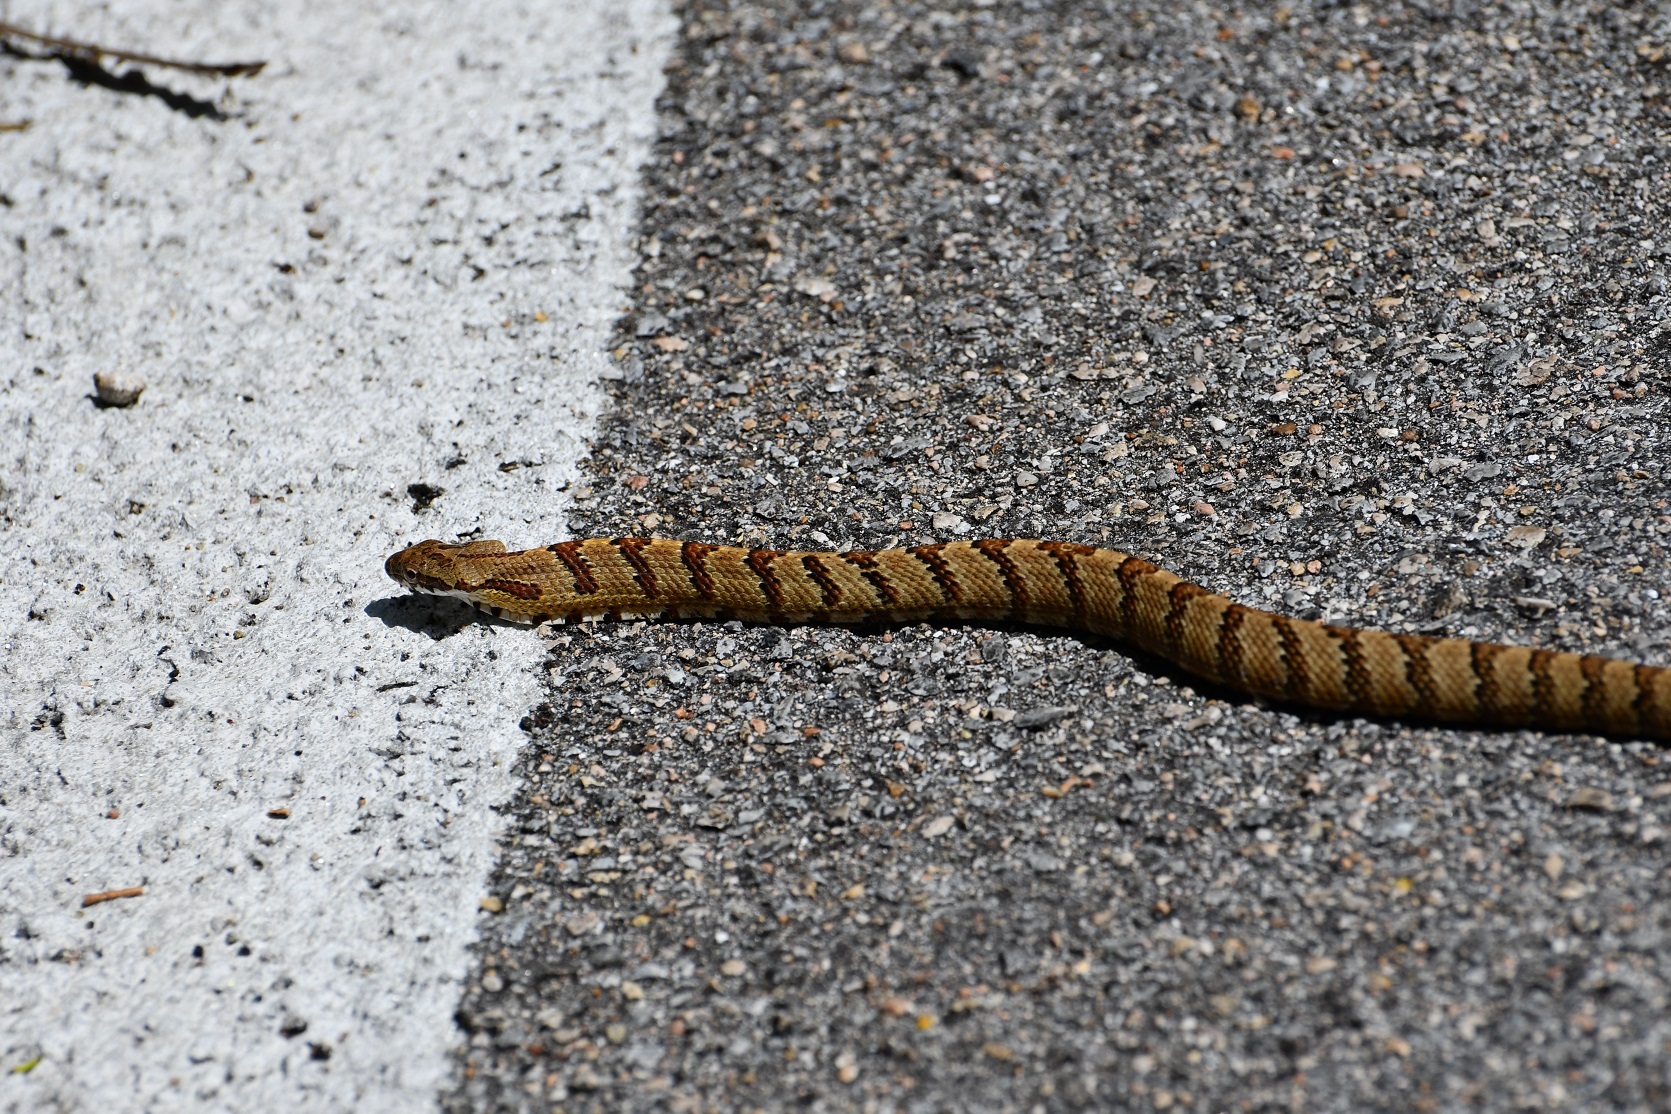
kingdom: Animalia
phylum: Chordata
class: Squamata
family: Colubridae
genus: Phrynonax
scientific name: Phrynonax poecilonotus
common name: Puffing snake
